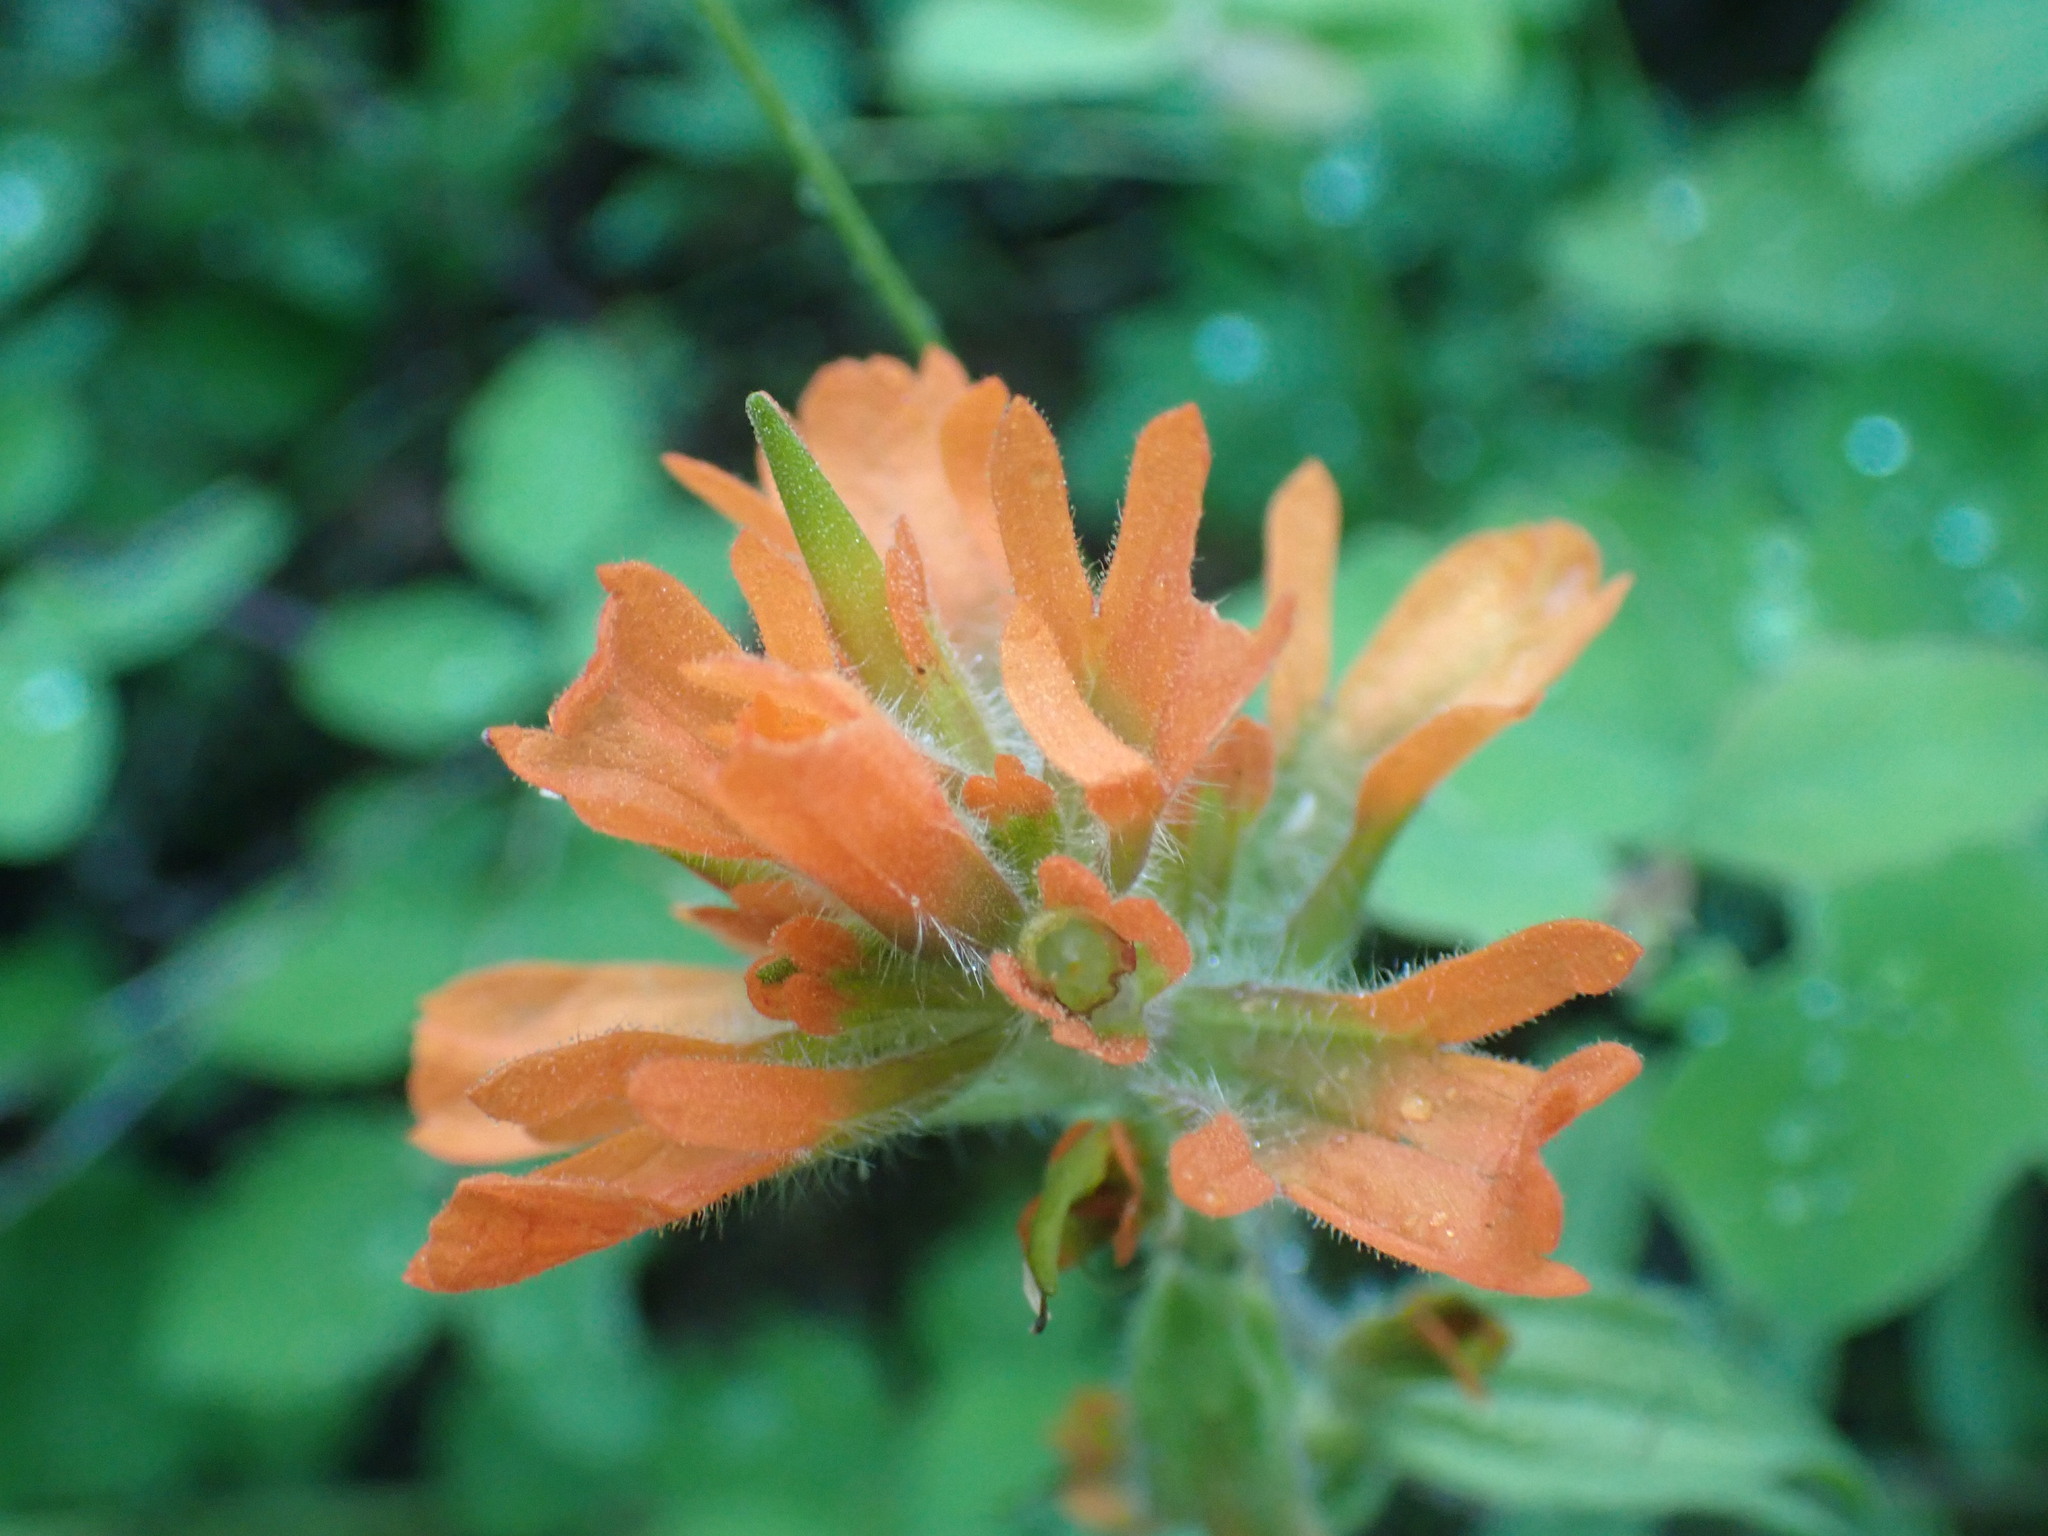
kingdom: Plantae
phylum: Tracheophyta
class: Magnoliopsida
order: Lamiales
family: Orobanchaceae
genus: Castilleja
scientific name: Castilleja hispida
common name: Bristly paintbrush
